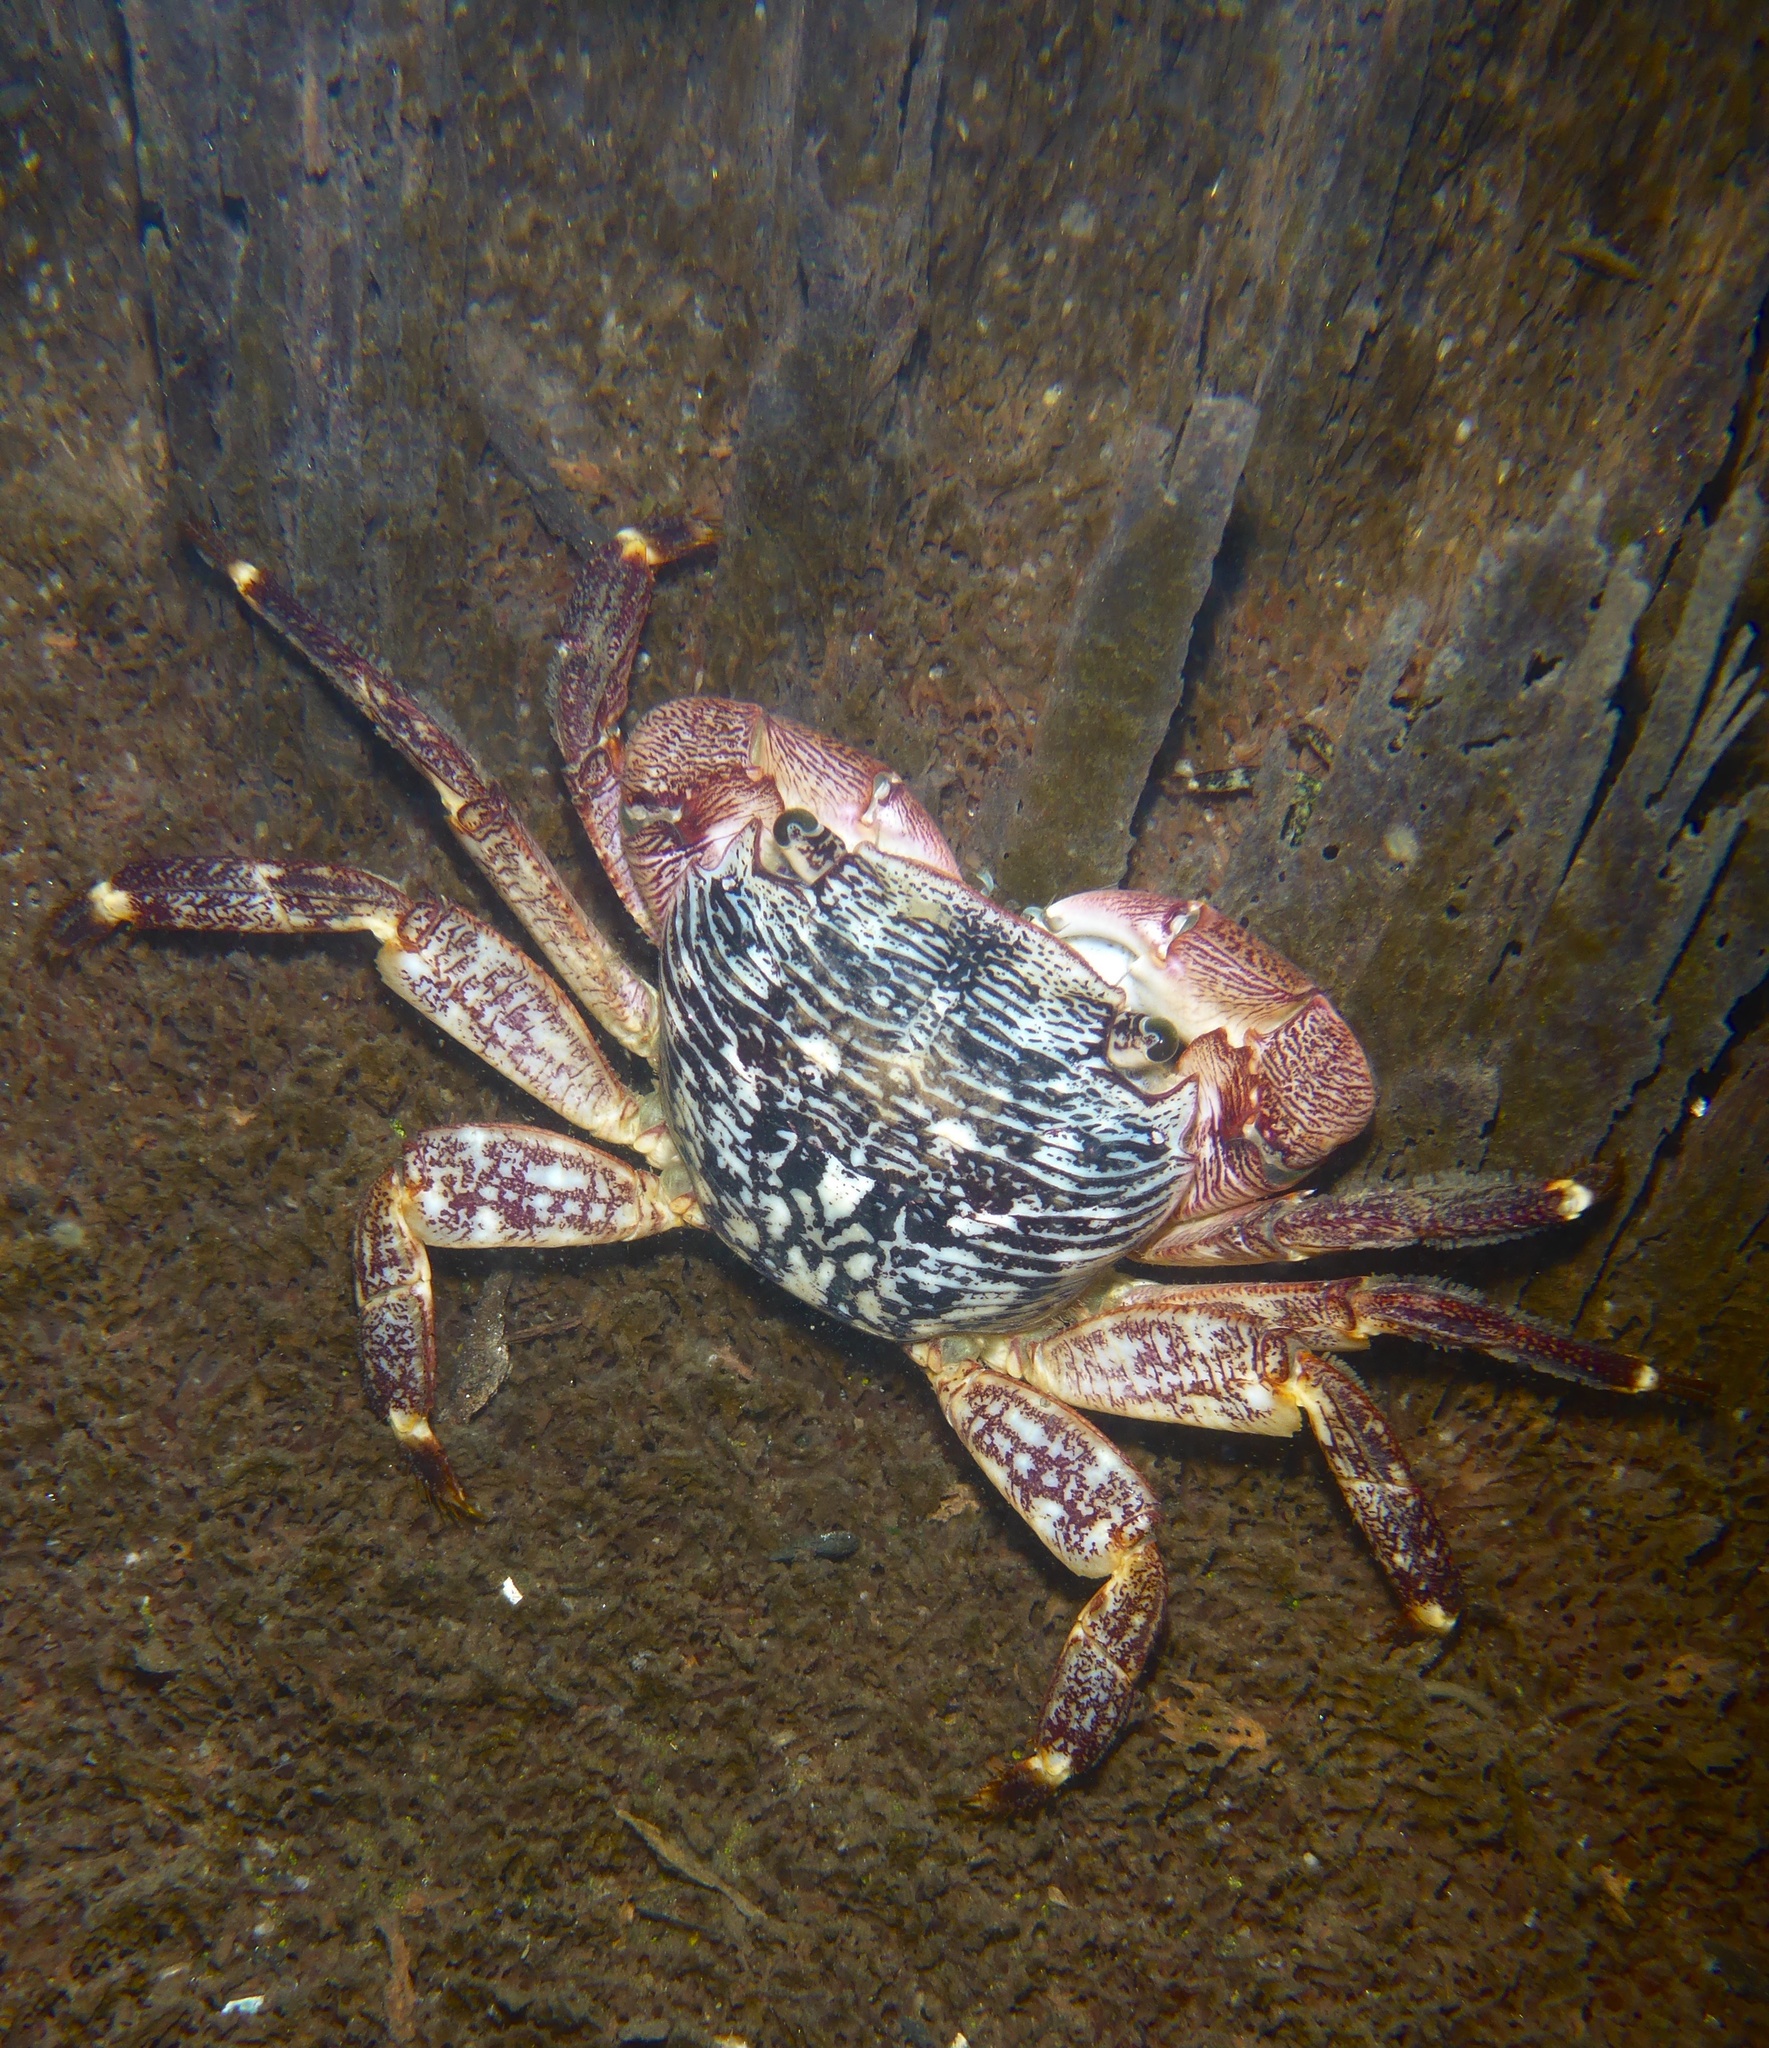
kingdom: Animalia
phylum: Arthropoda
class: Malacostraca
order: Decapoda
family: Grapsidae
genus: Pachygrapsus
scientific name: Pachygrapsus crassipes
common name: Striped shore crab
